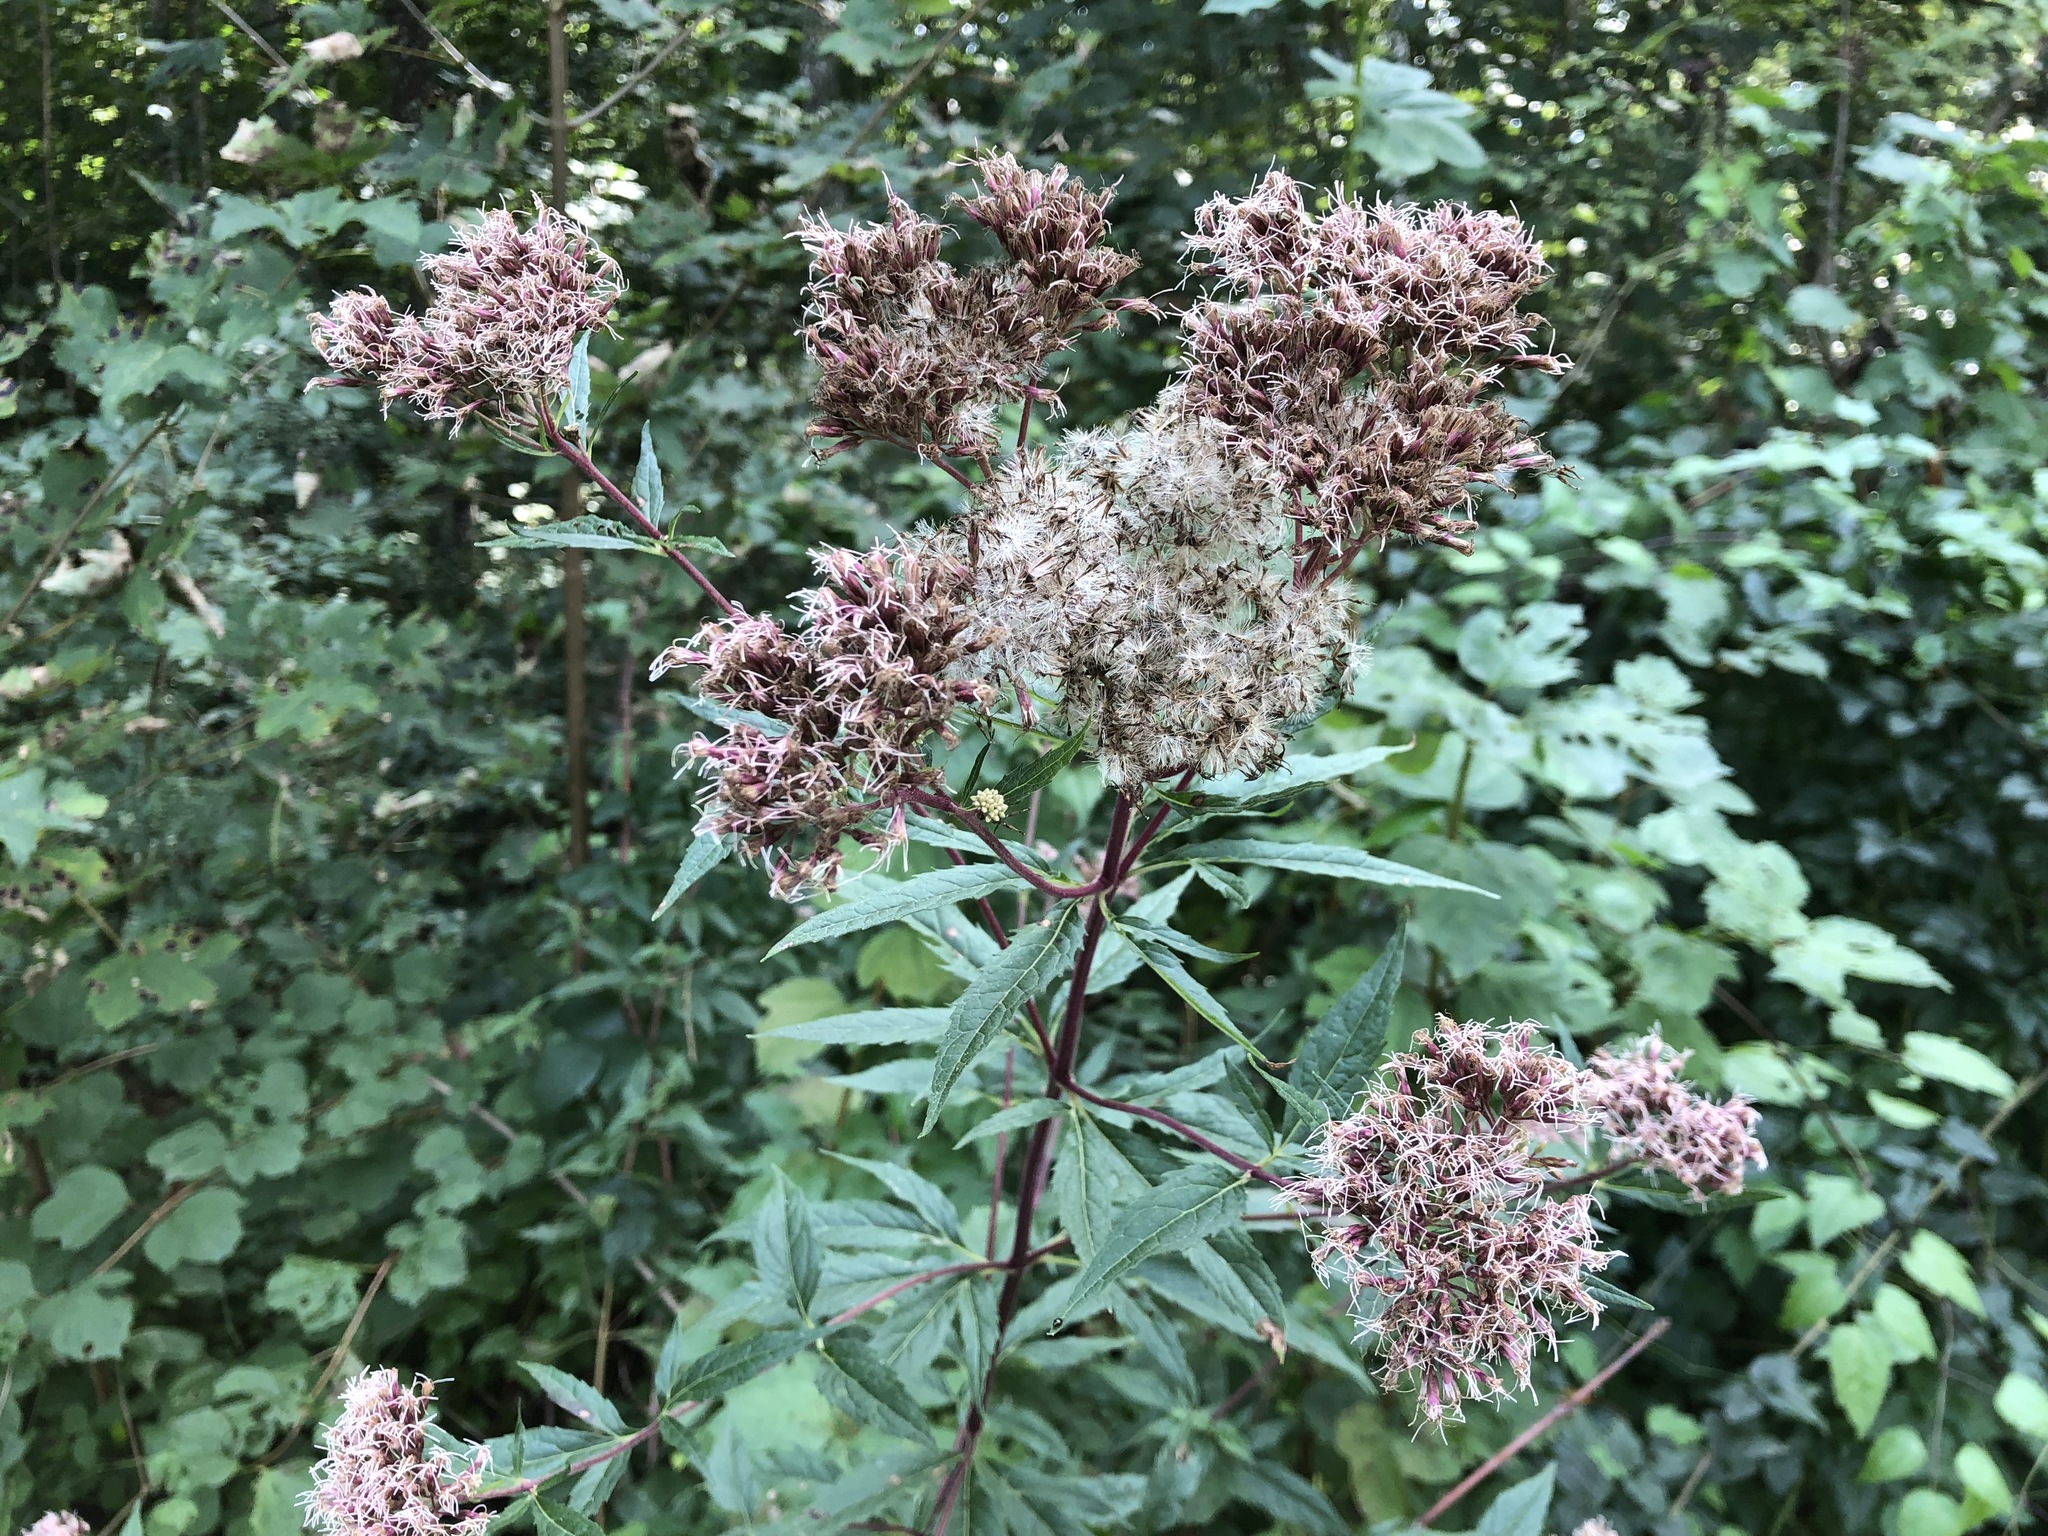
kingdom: Plantae
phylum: Tracheophyta
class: Magnoliopsida
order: Asterales
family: Asteraceae
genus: Eupatorium
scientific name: Eupatorium cannabinum
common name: Hemp-agrimony
